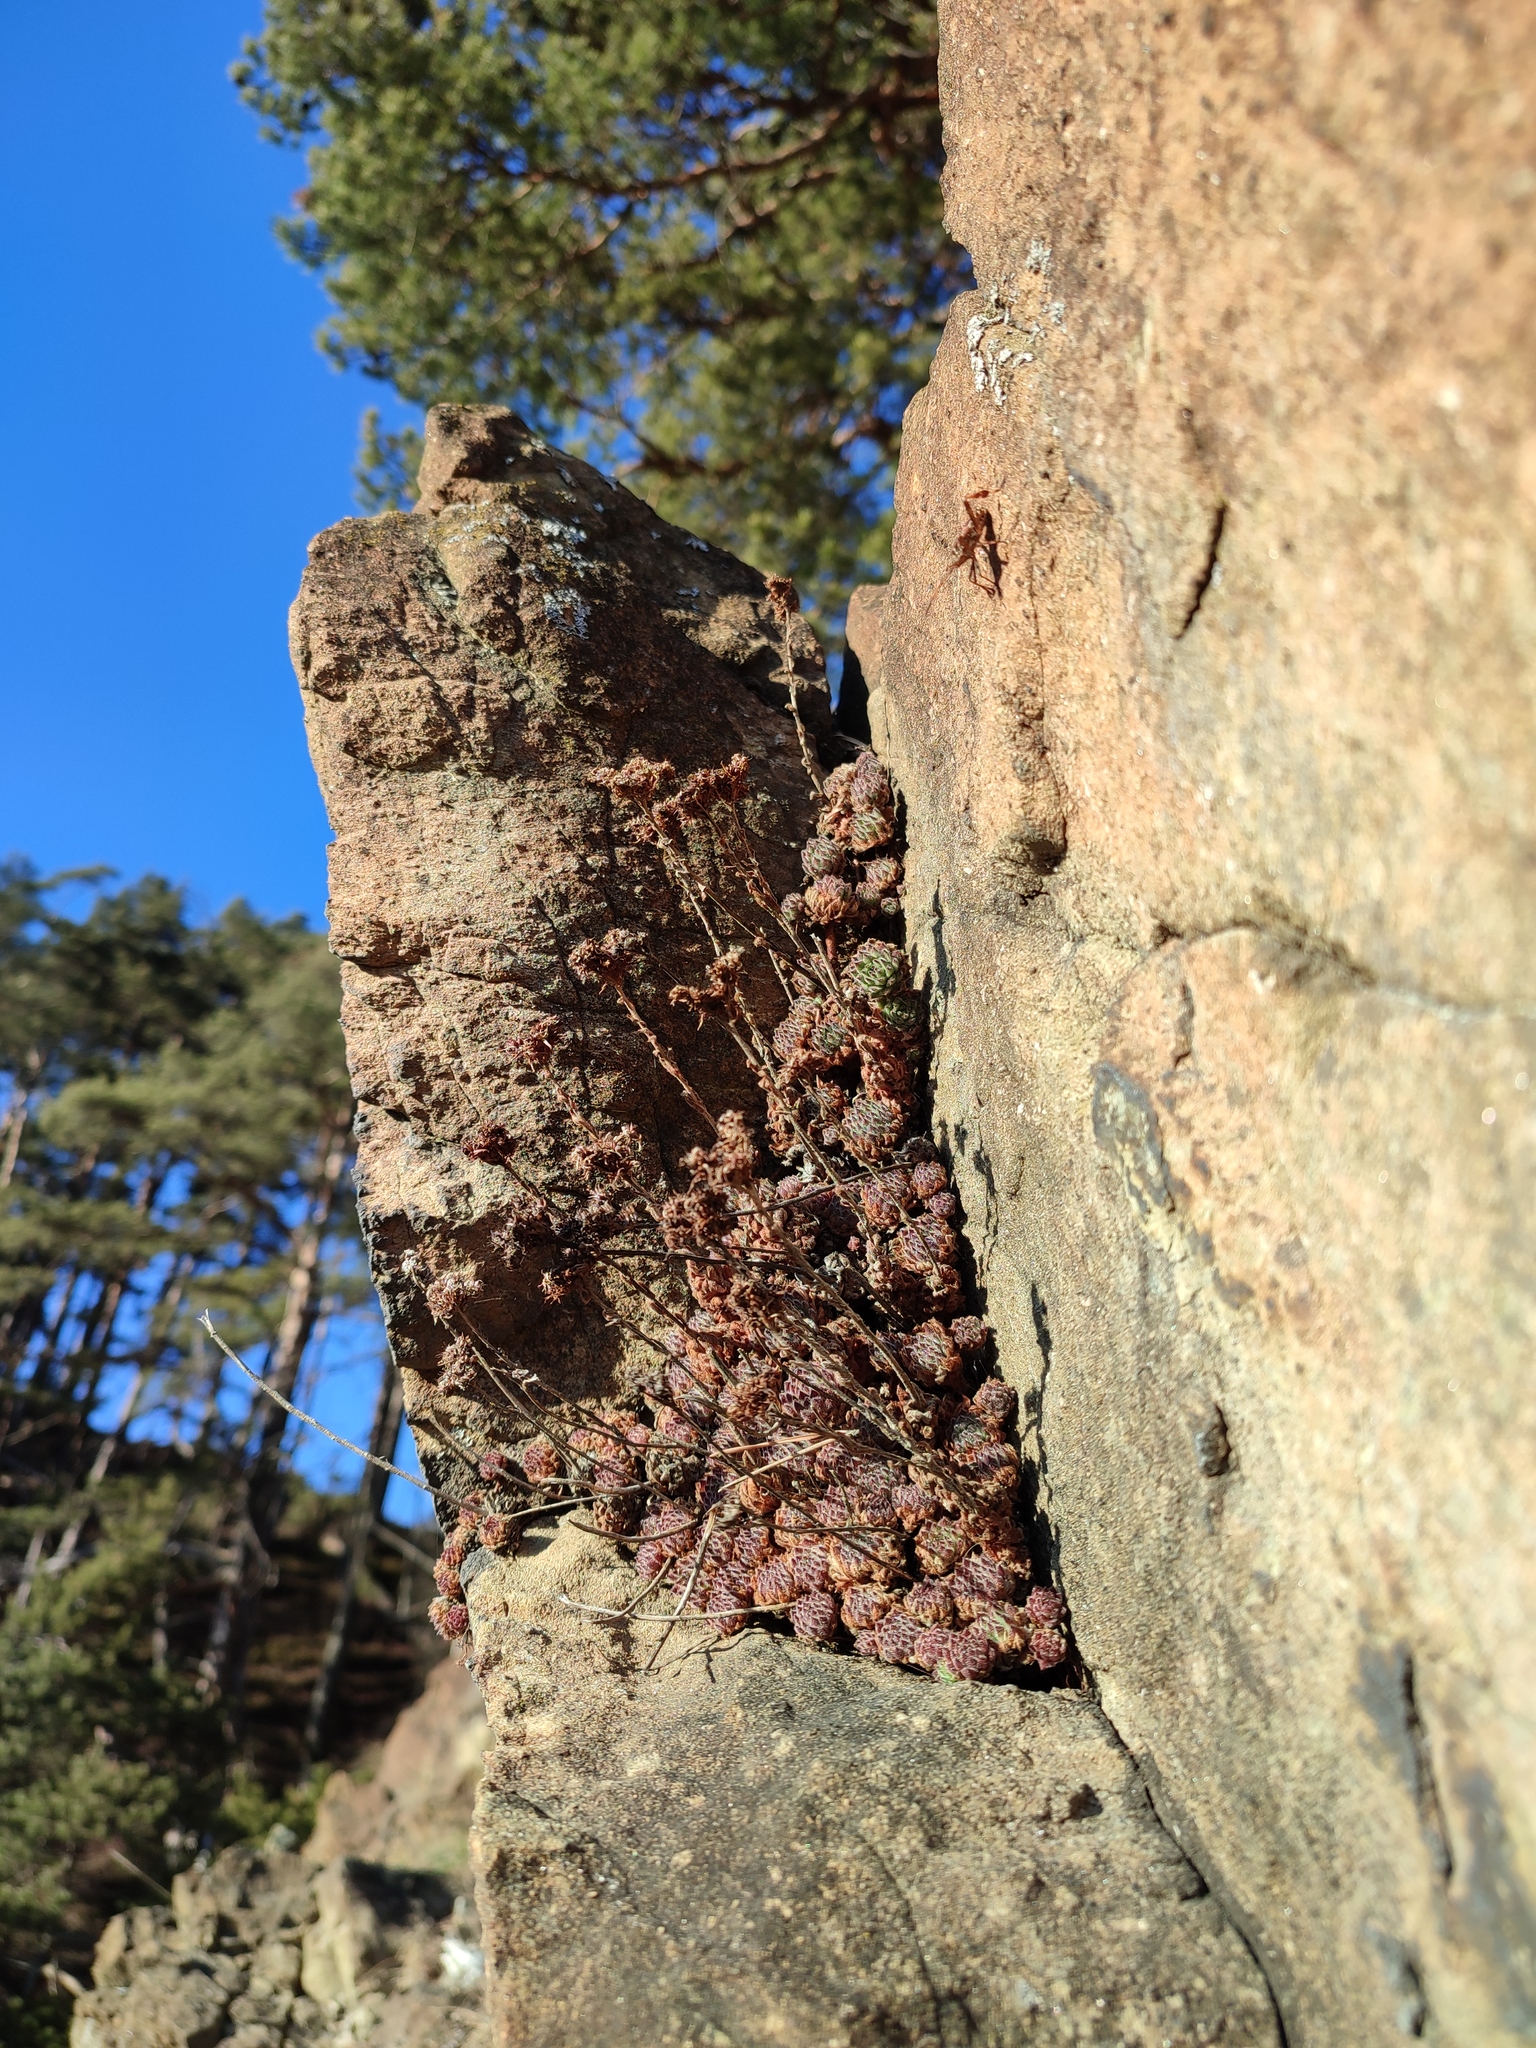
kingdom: Plantae
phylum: Tracheophyta
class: Magnoliopsida
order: Saxifragales
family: Crassulaceae
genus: Sempervivum
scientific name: Sempervivum pittonii
